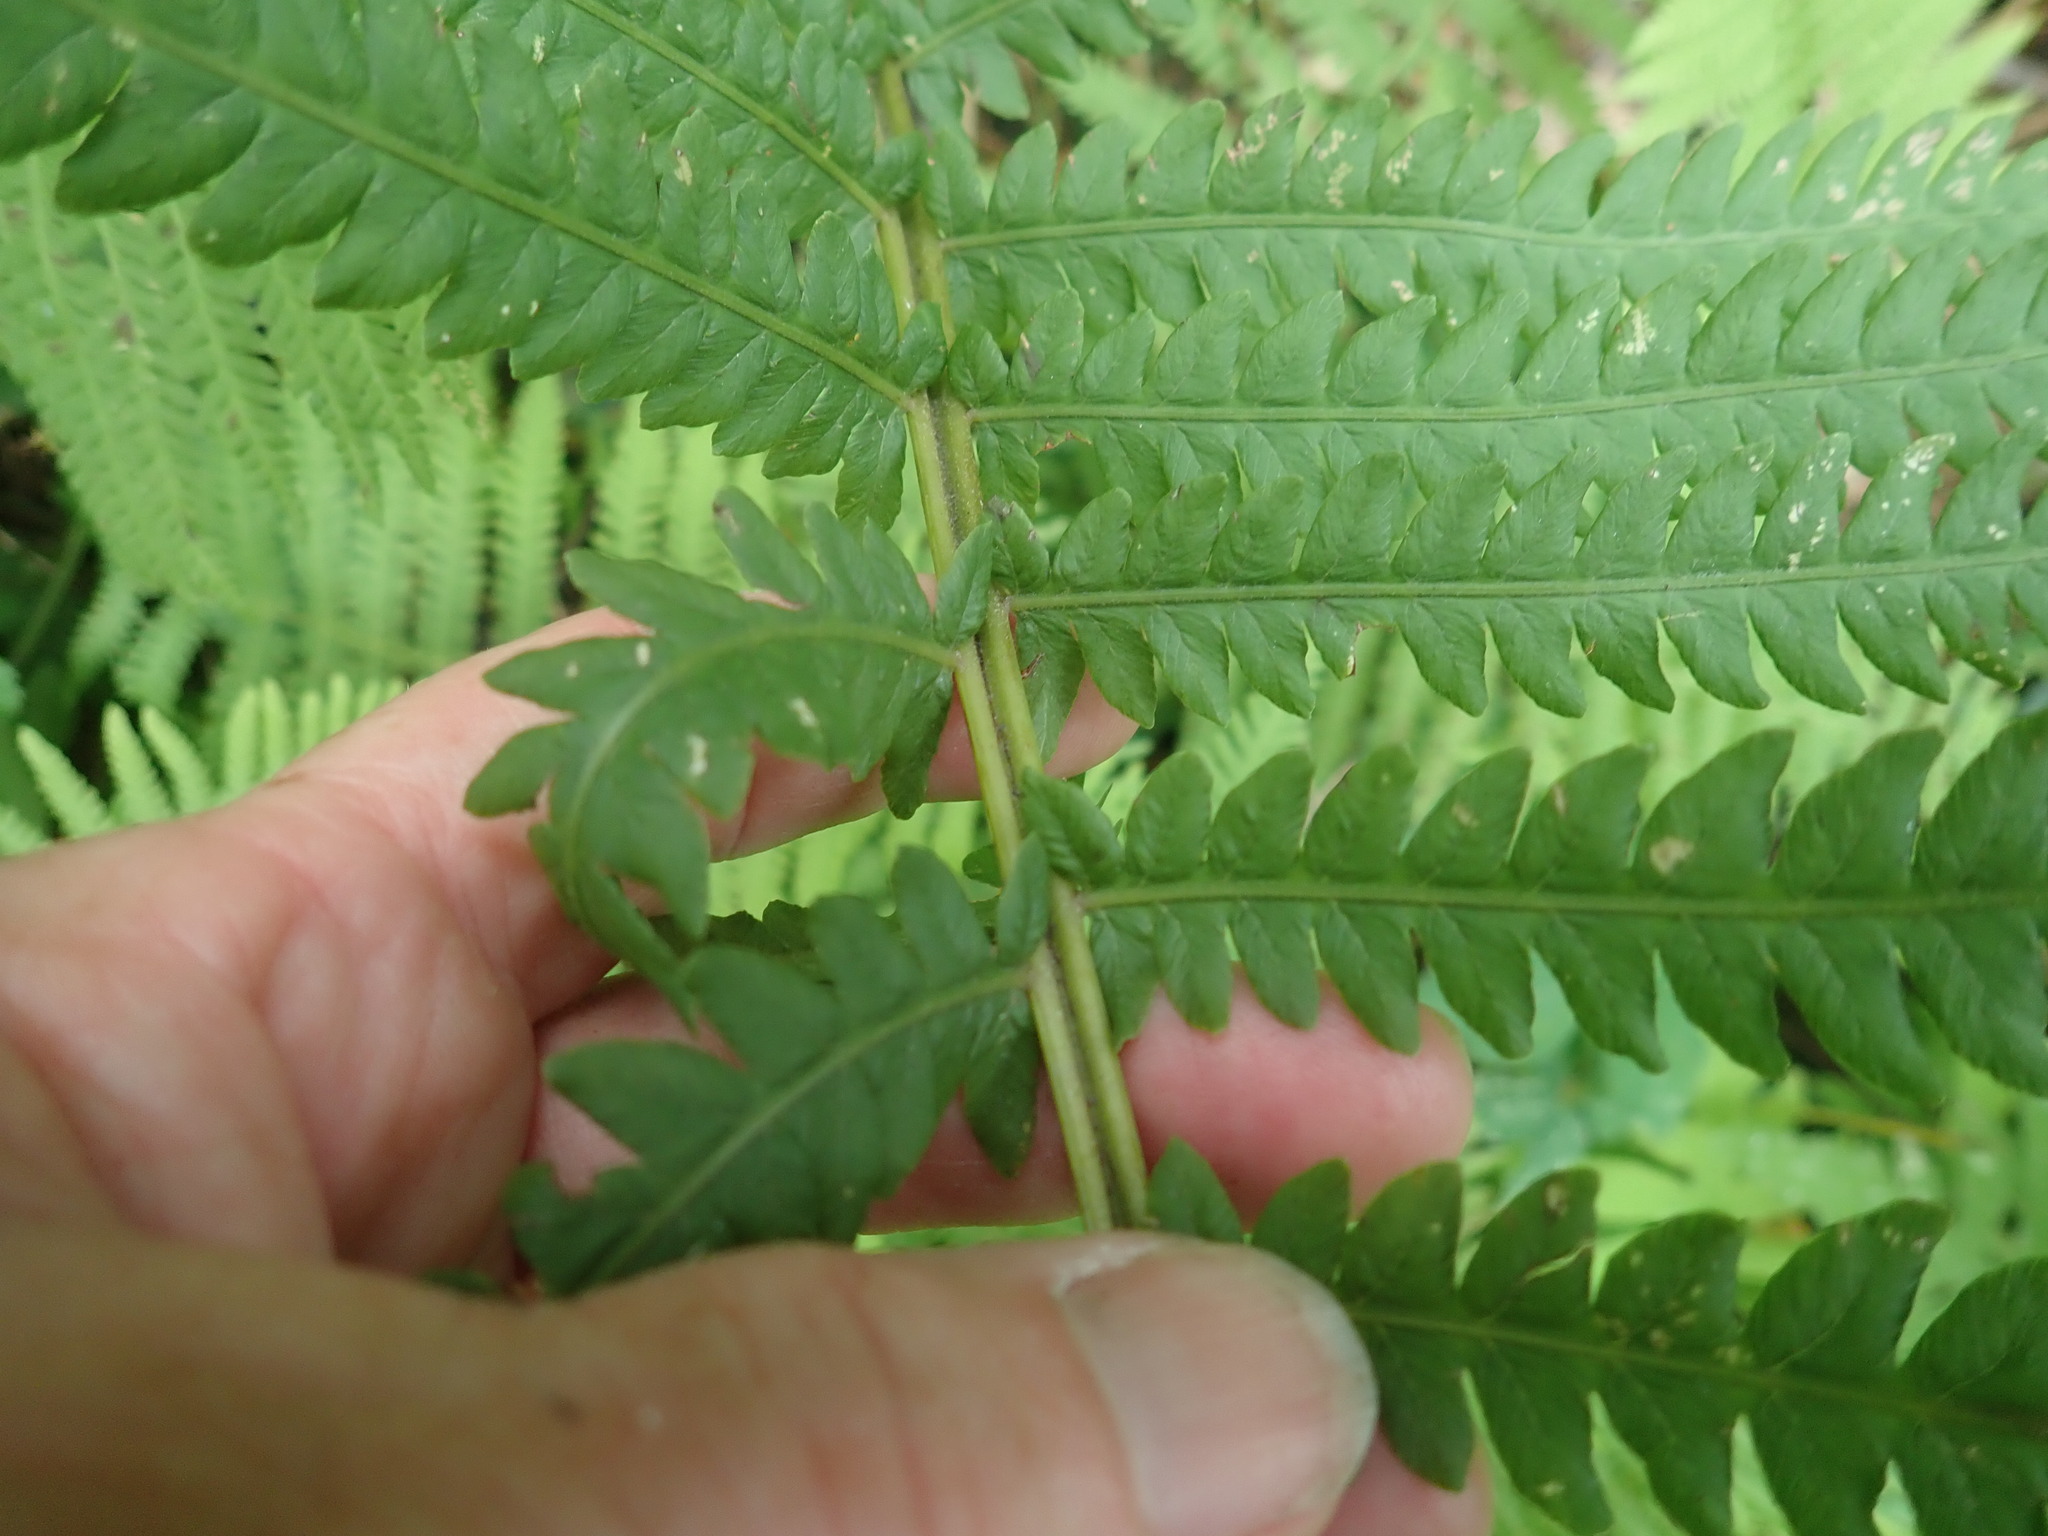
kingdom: Plantae
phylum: Tracheophyta
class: Polypodiopsida
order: Polypodiales
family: Onocleaceae
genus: Matteuccia
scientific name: Matteuccia struthiopteris
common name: Ostrich fern
